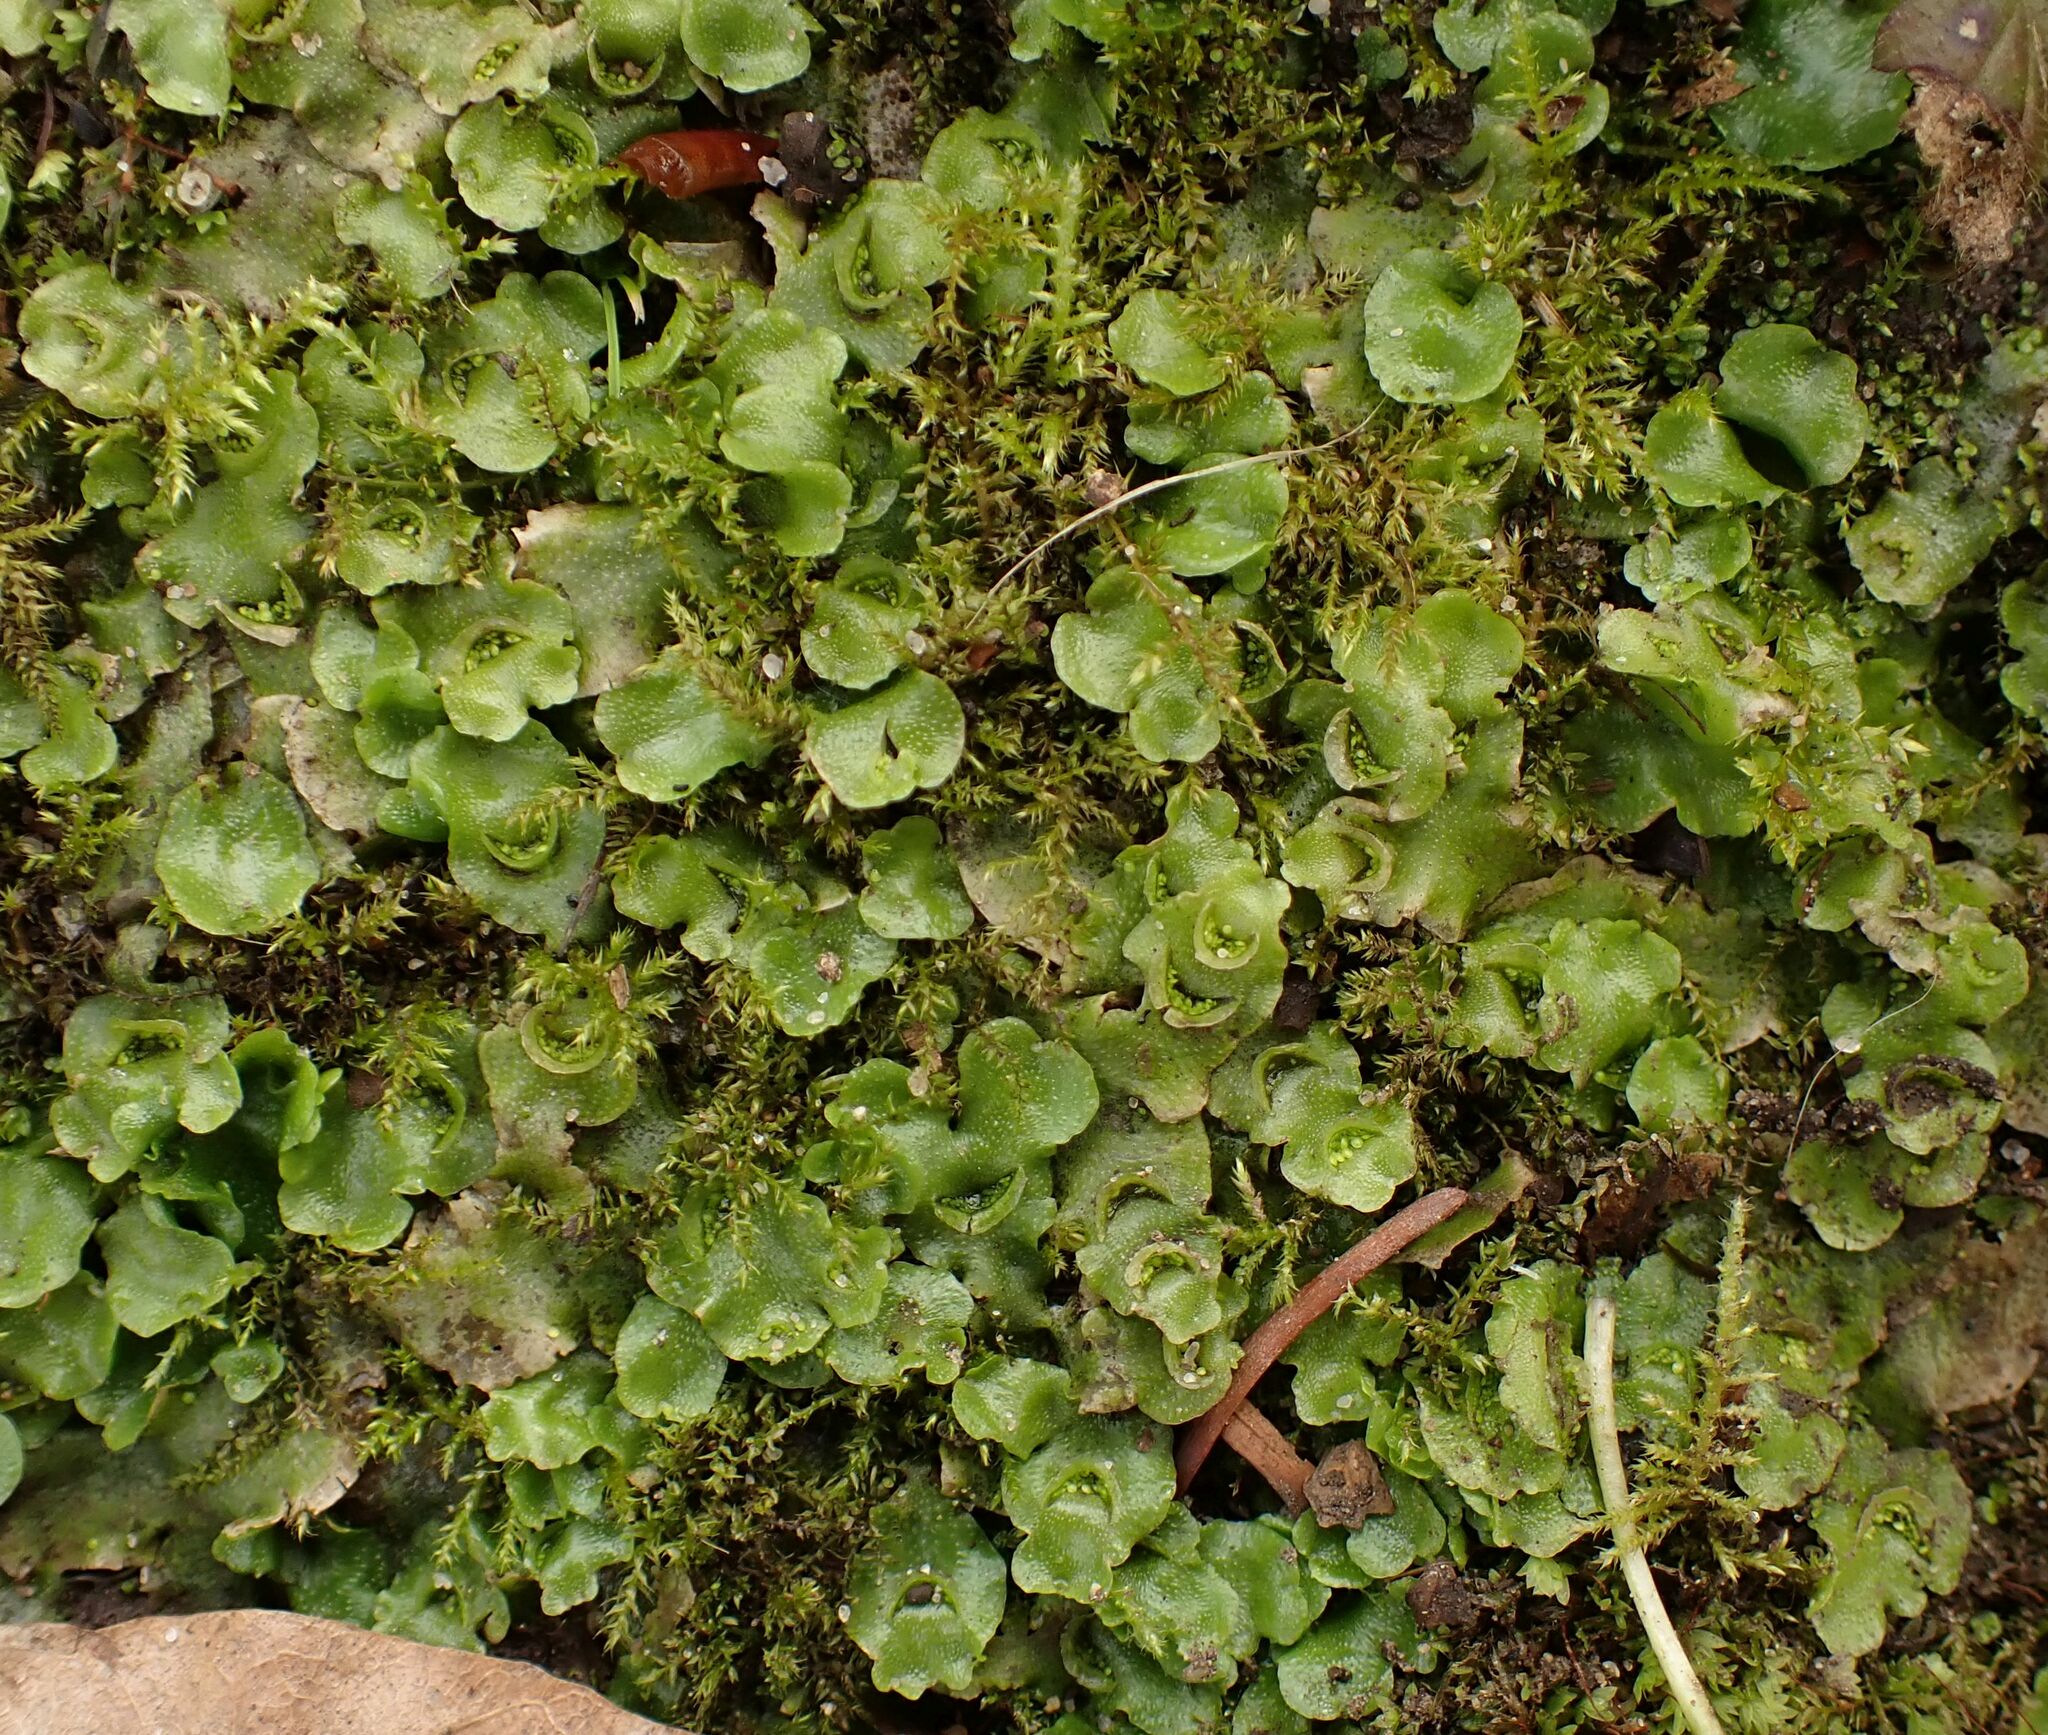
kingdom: Plantae
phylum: Marchantiophyta
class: Marchantiopsida
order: Lunulariales
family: Lunulariaceae
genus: Lunularia
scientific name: Lunularia cruciata
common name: Crescent-cup liverwort
